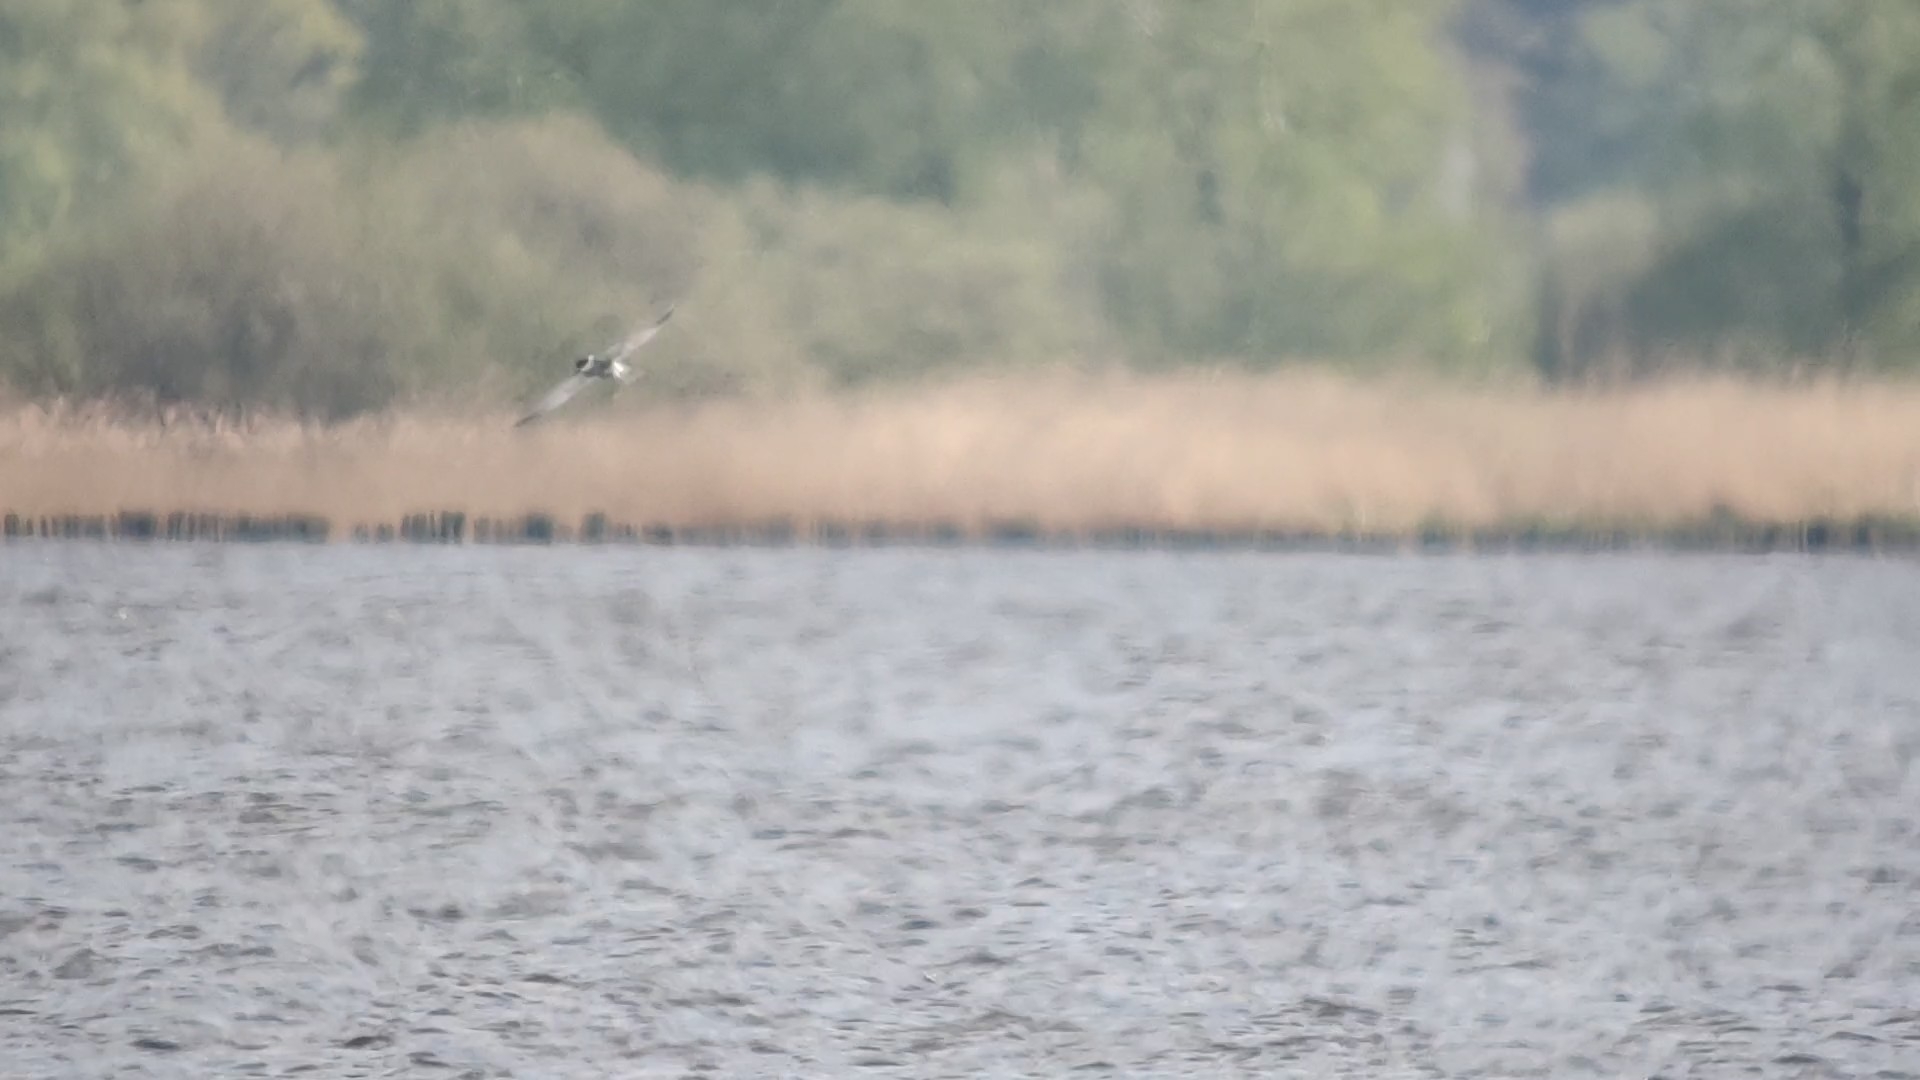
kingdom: Animalia
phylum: Chordata
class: Aves
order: Charadriiformes
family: Laridae
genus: Chlidonias
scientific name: Chlidonias hybrida
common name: Whiskered tern
